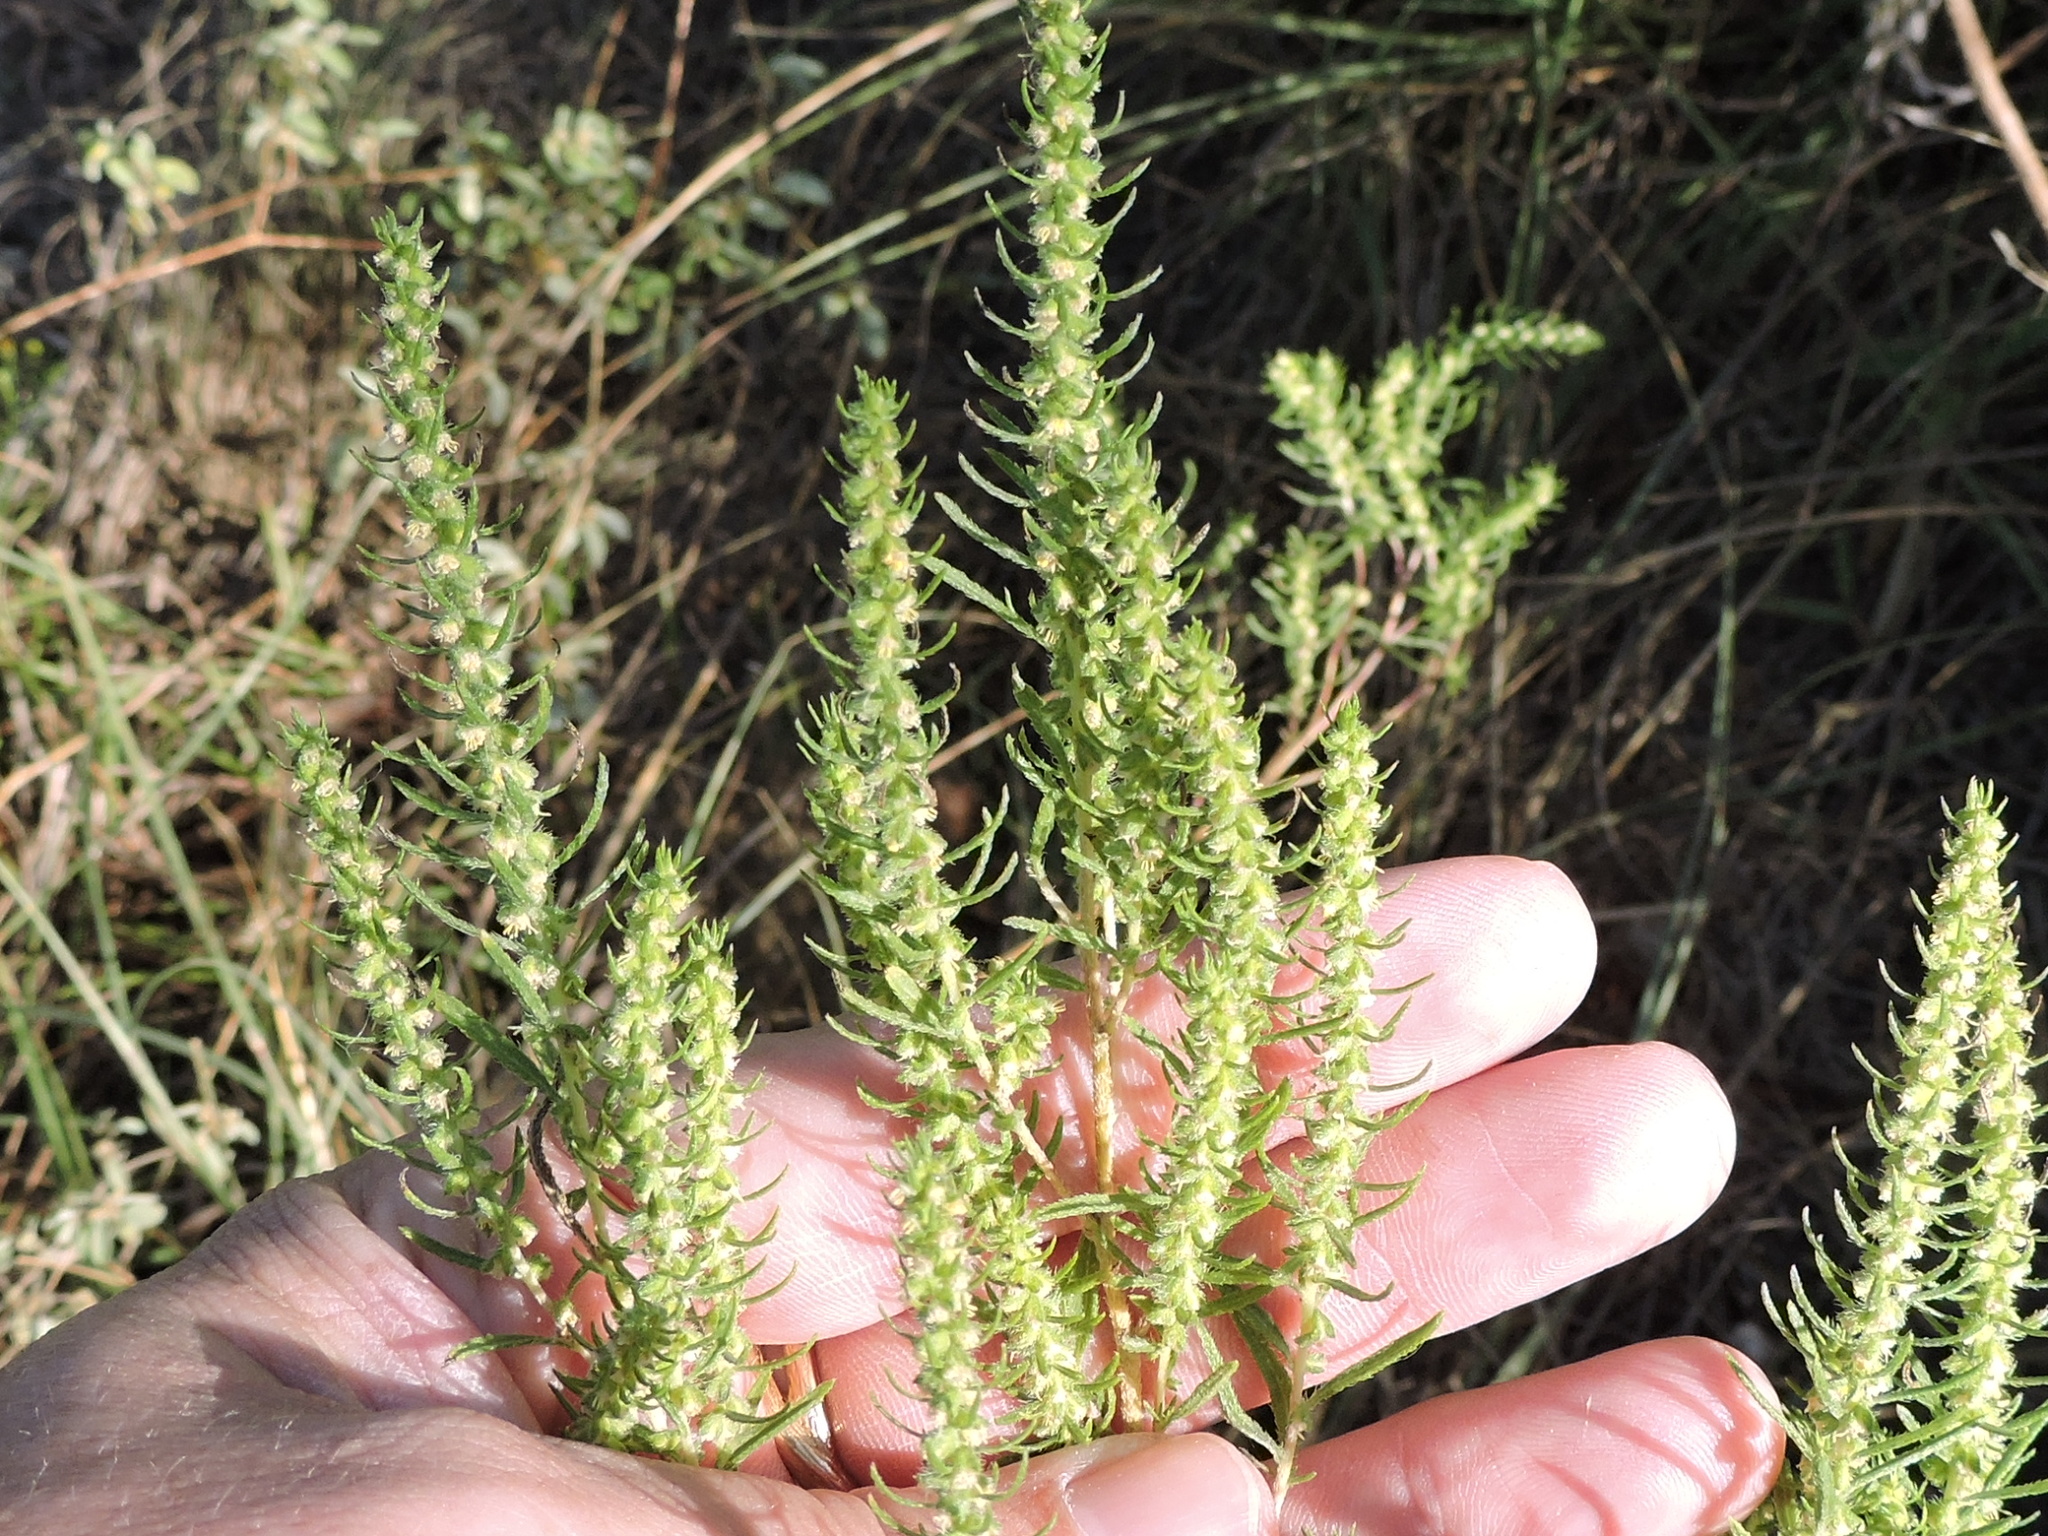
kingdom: Plantae
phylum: Tracheophyta
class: Magnoliopsida
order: Asterales
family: Asteraceae
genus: Iva
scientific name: Iva asperifolia
